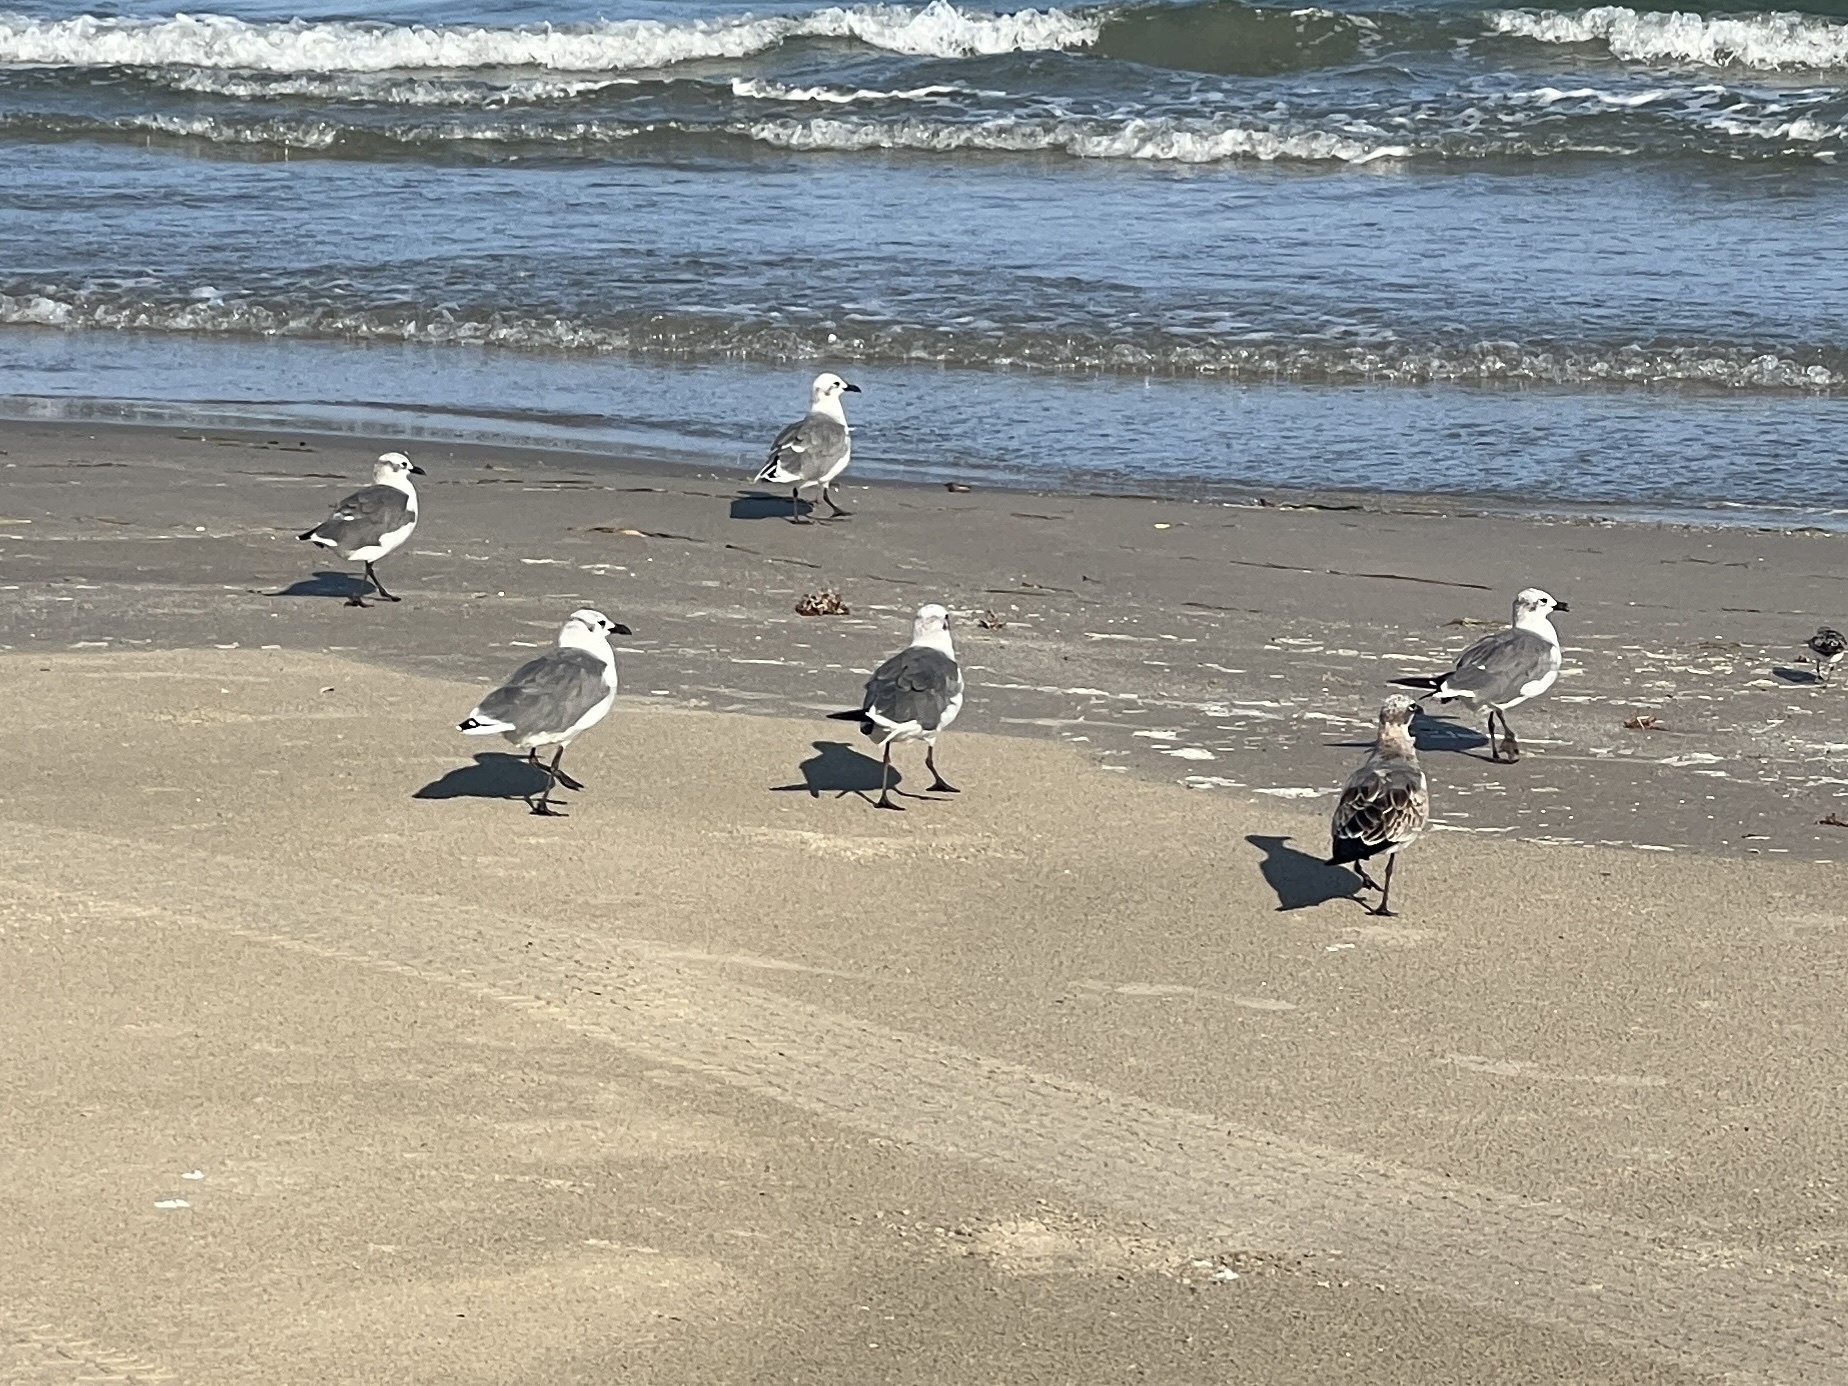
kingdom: Animalia
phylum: Chordata
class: Aves
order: Charadriiformes
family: Laridae
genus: Leucophaeus
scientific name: Leucophaeus atricilla
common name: Laughing gull
